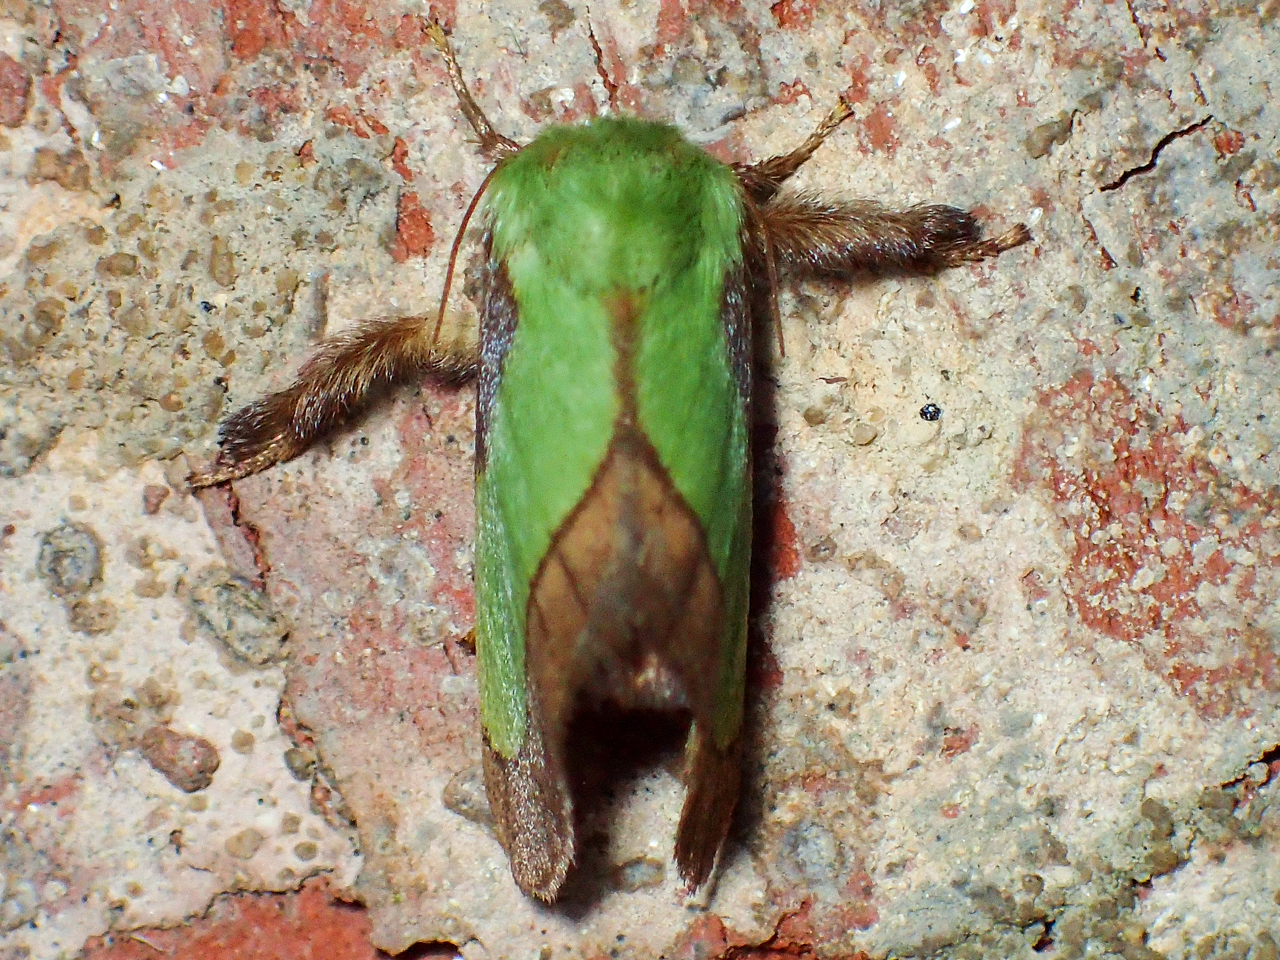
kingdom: Animalia
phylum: Arthropoda
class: Insecta
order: Lepidoptera
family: Limacodidae
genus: Parasa
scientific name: Parasa chloris
